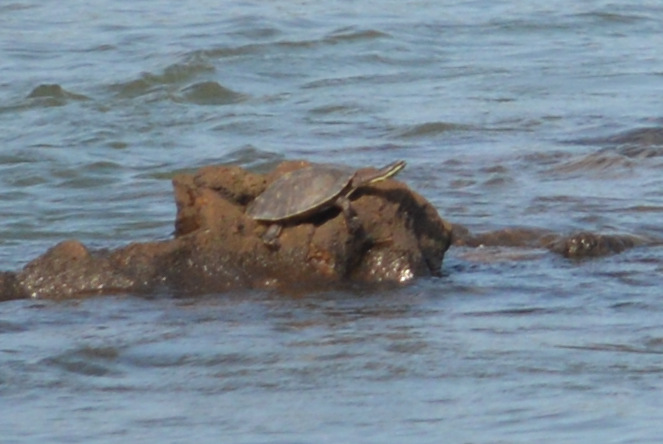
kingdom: Animalia
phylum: Chordata
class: Testudines
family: Chelidae
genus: Phrynops
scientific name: Phrynops williamsi
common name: Williams side-necked turtle
